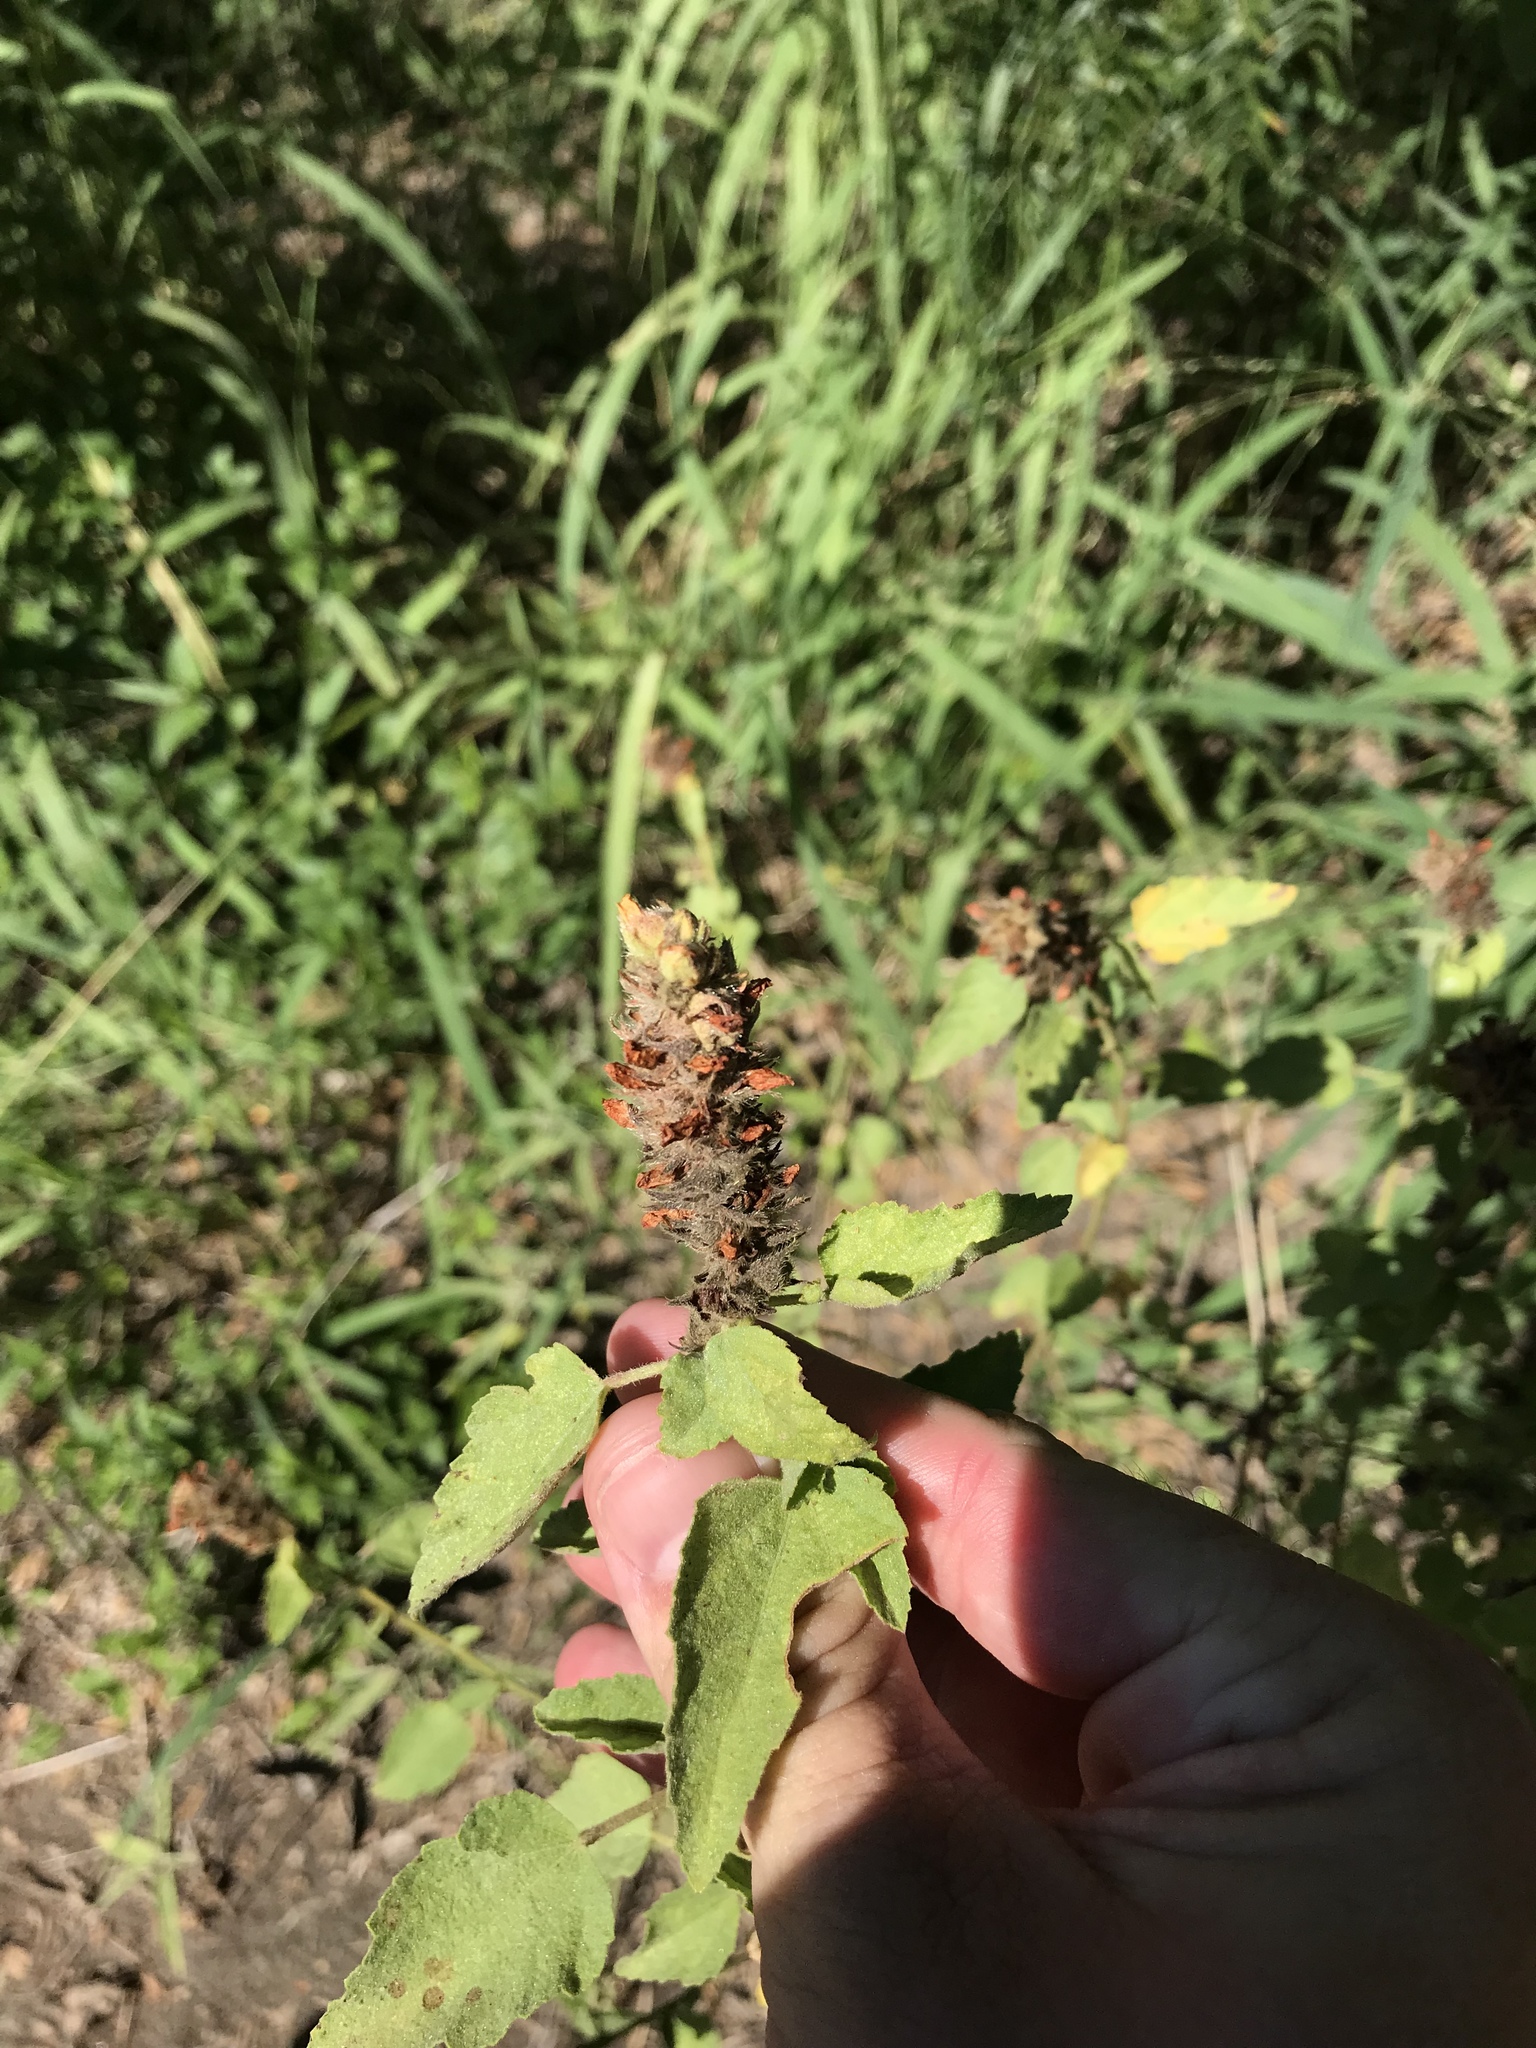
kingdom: Plantae
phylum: Tracheophyta
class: Magnoliopsida
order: Malvales
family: Malvaceae
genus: Malvastrum
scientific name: Malvastrum americanum
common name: Spiked malvastrum
